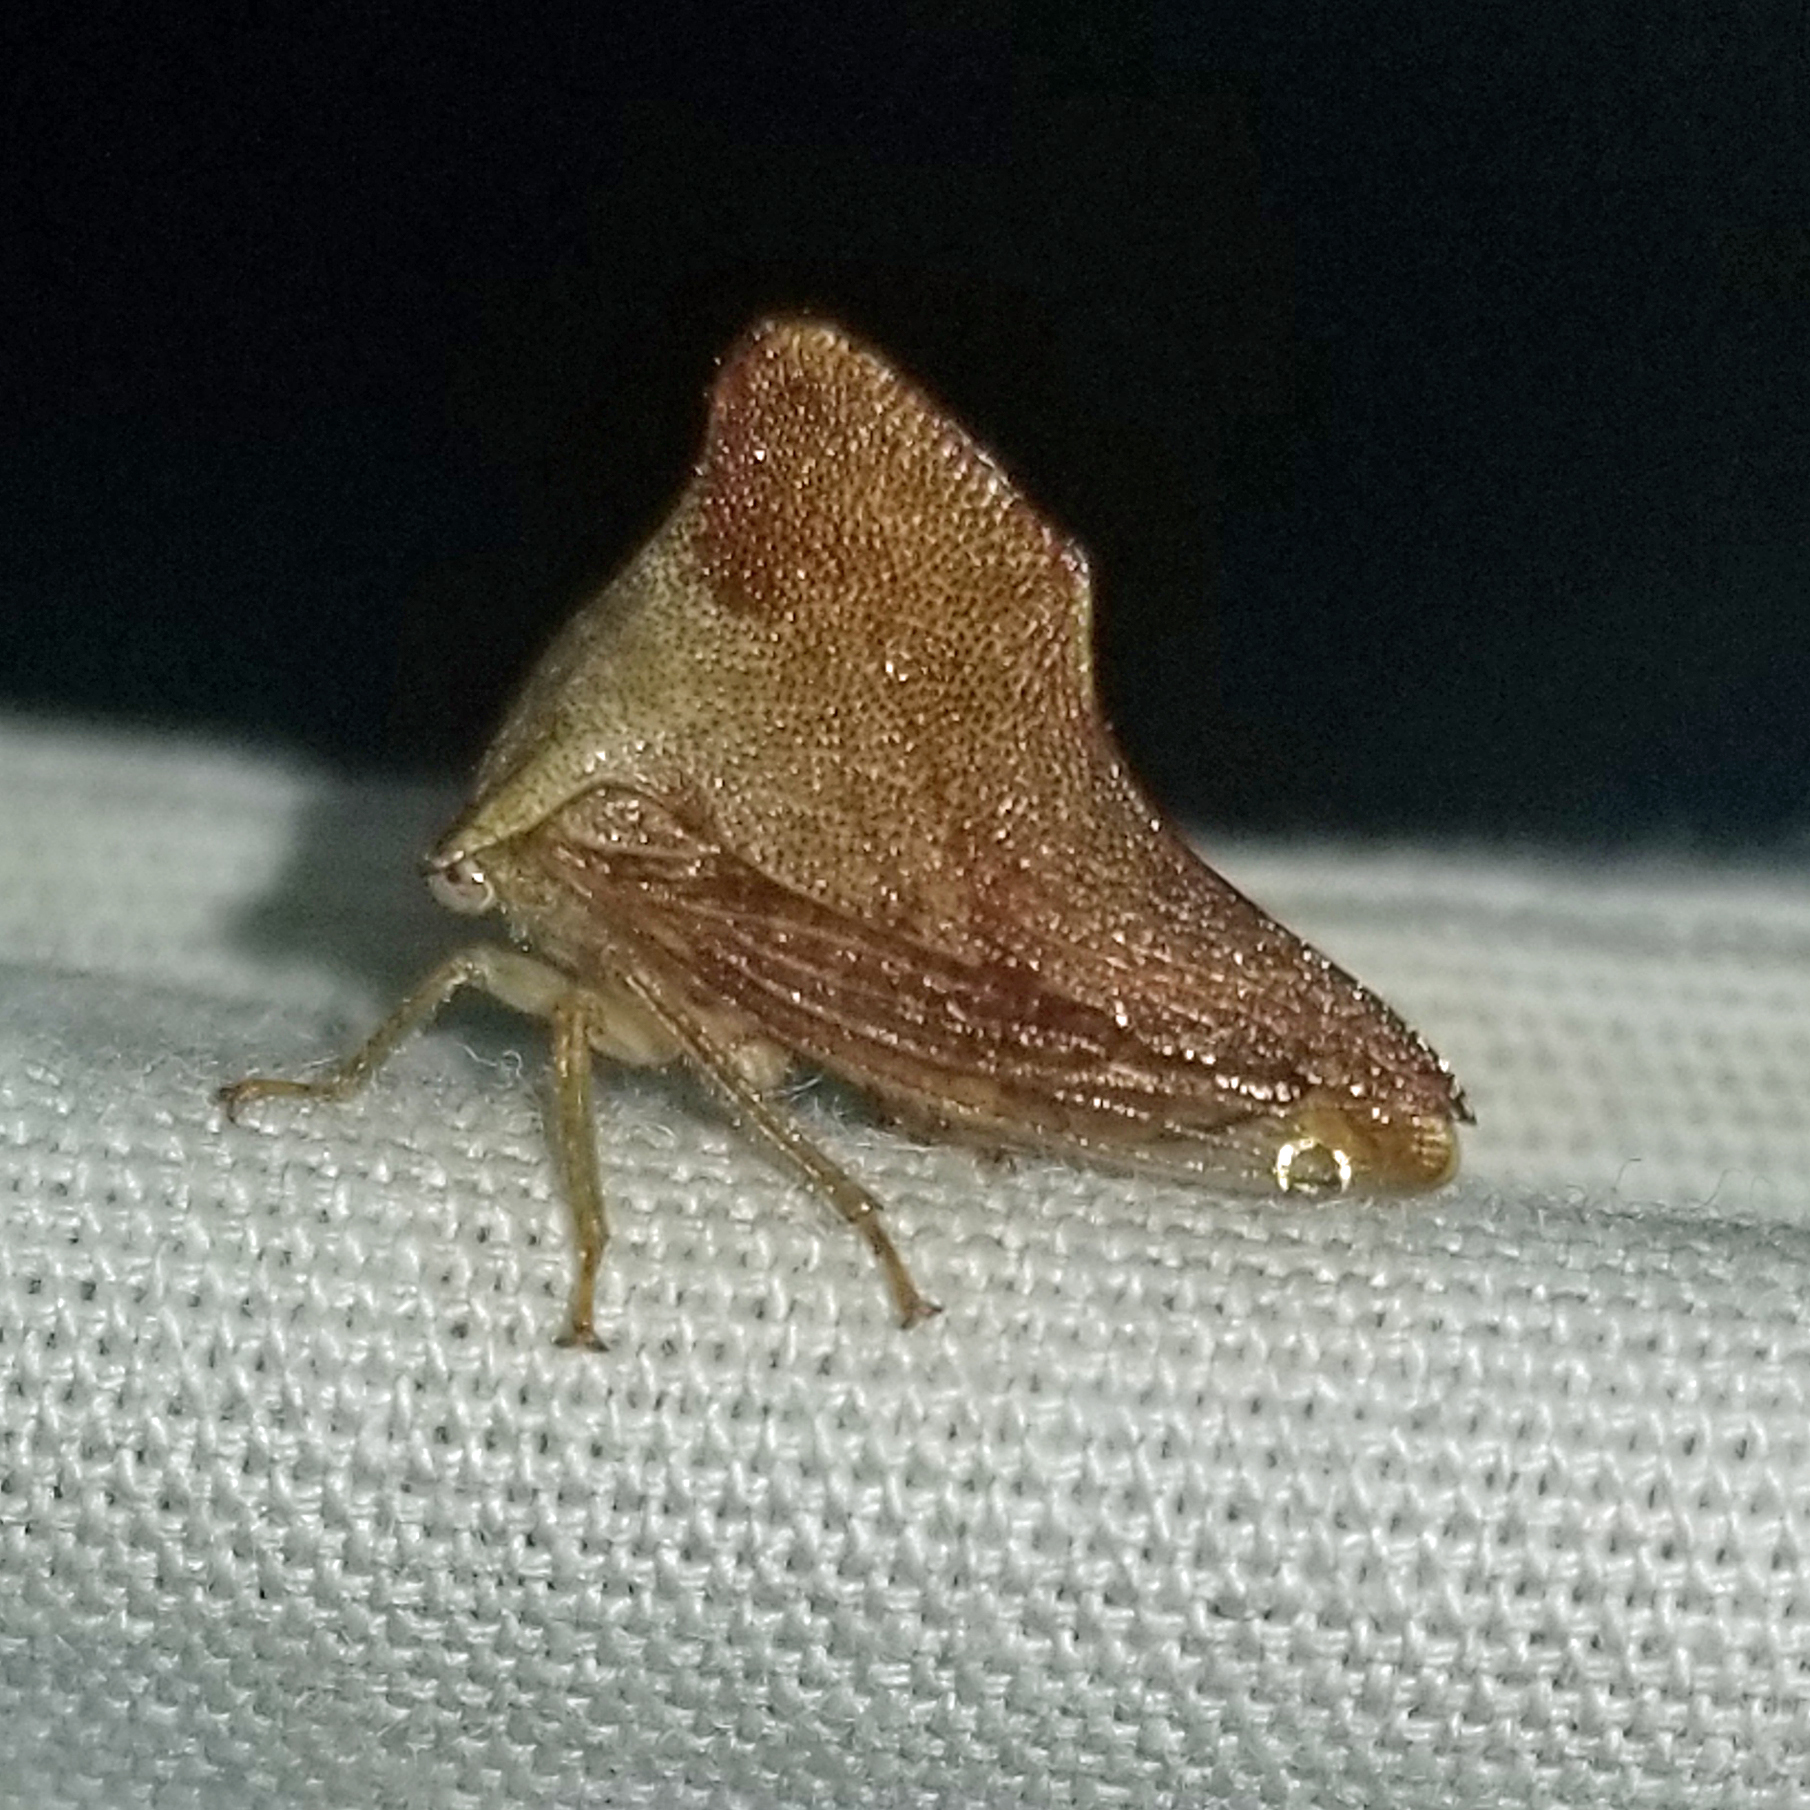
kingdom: Animalia
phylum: Arthropoda
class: Insecta
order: Hemiptera
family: Membracidae
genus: Telamona
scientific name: Telamona collina
